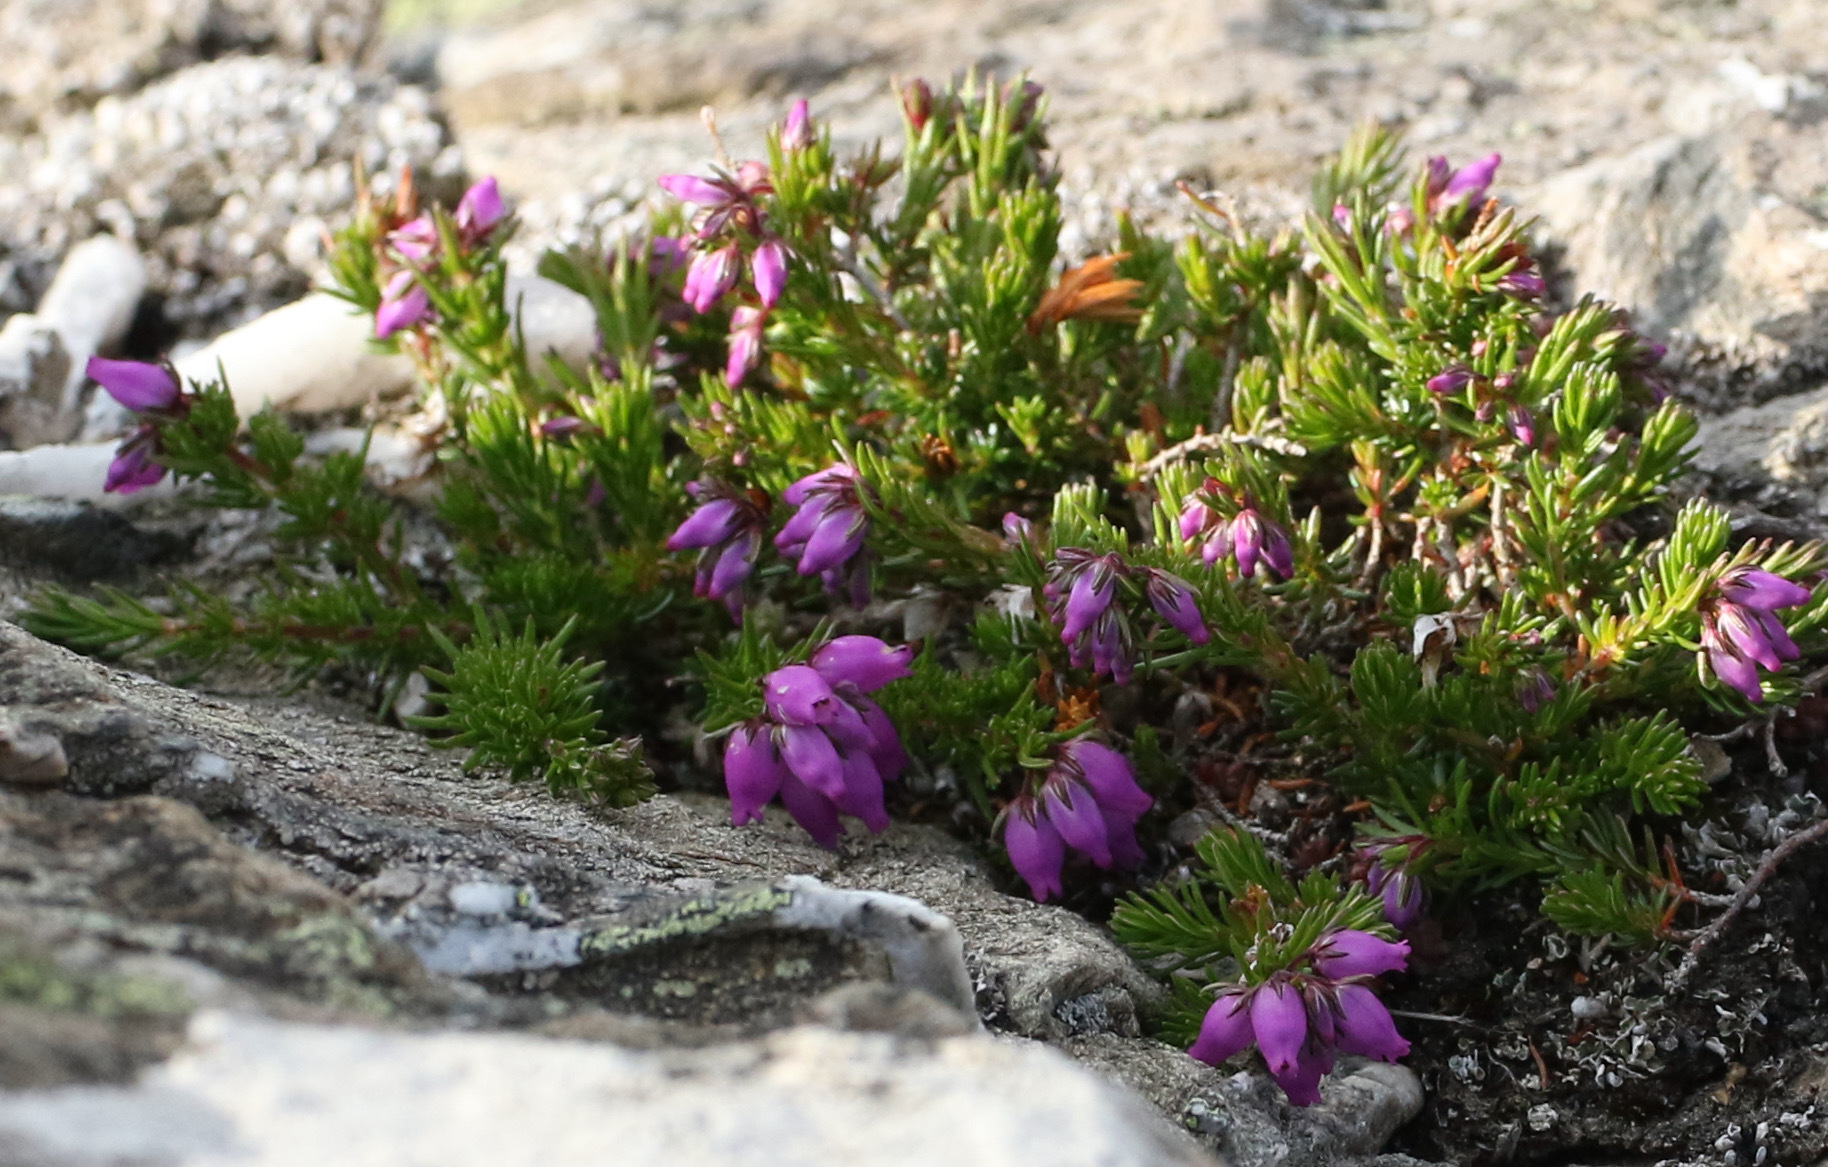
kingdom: Plantae
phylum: Tracheophyta
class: Magnoliopsida
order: Ericales
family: Ericaceae
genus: Erica
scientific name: Erica cinerea
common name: Bell heather
